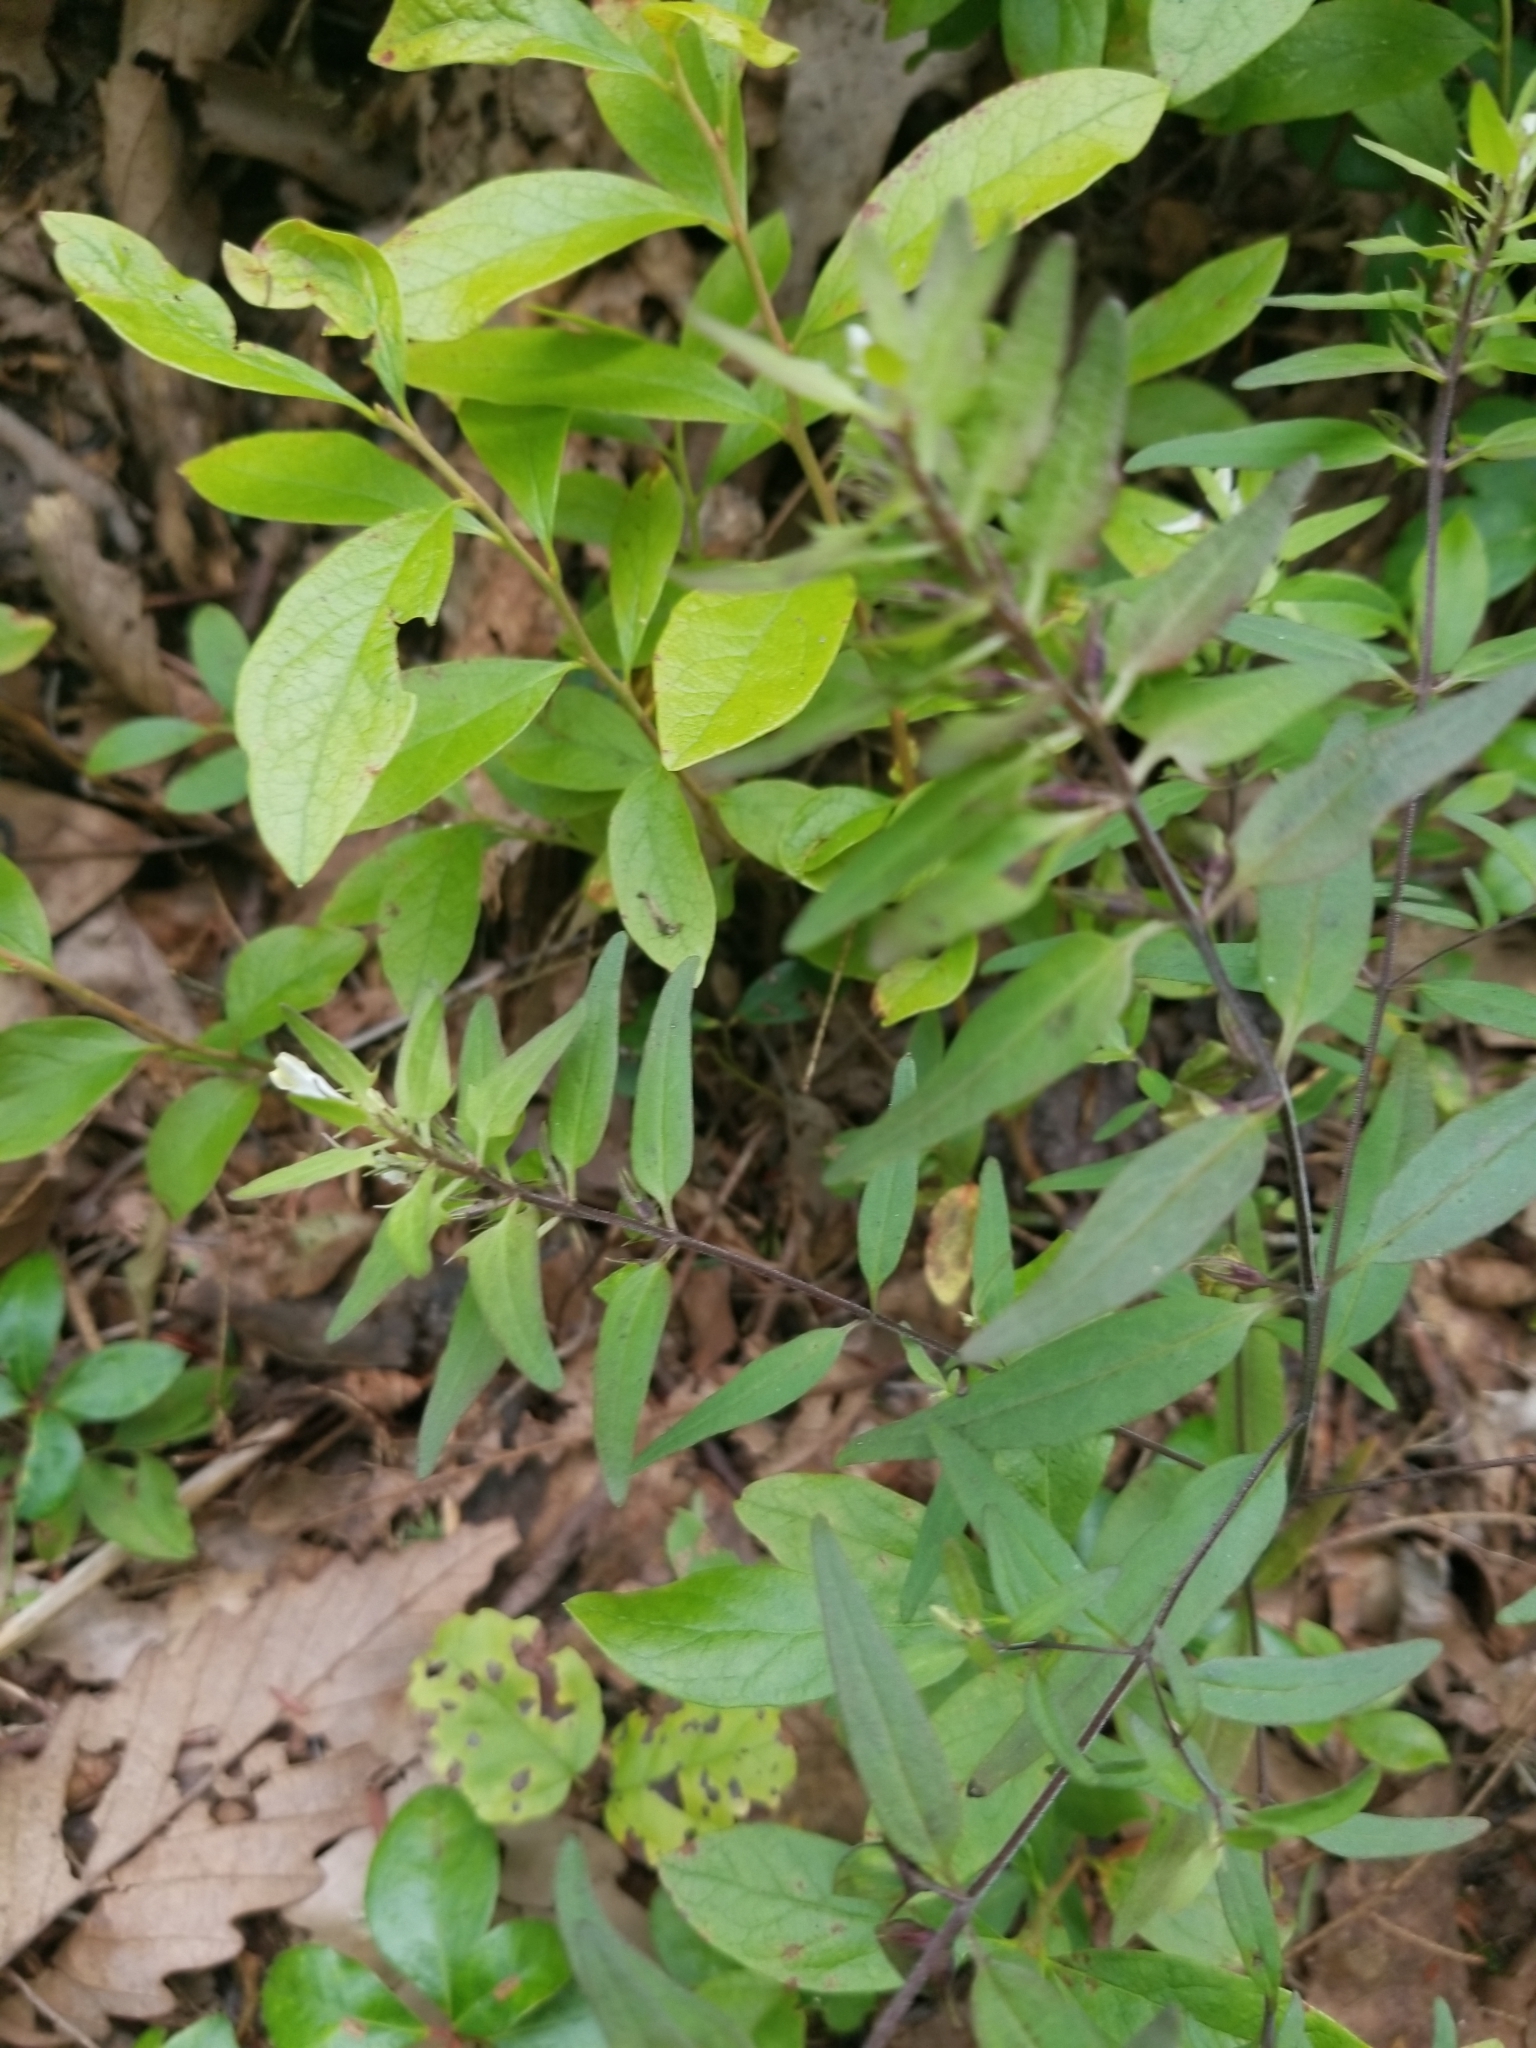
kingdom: Plantae
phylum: Tracheophyta
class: Magnoliopsida
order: Lamiales
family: Orobanchaceae
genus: Melampyrum
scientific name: Melampyrum lineare
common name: American cow-wheat
